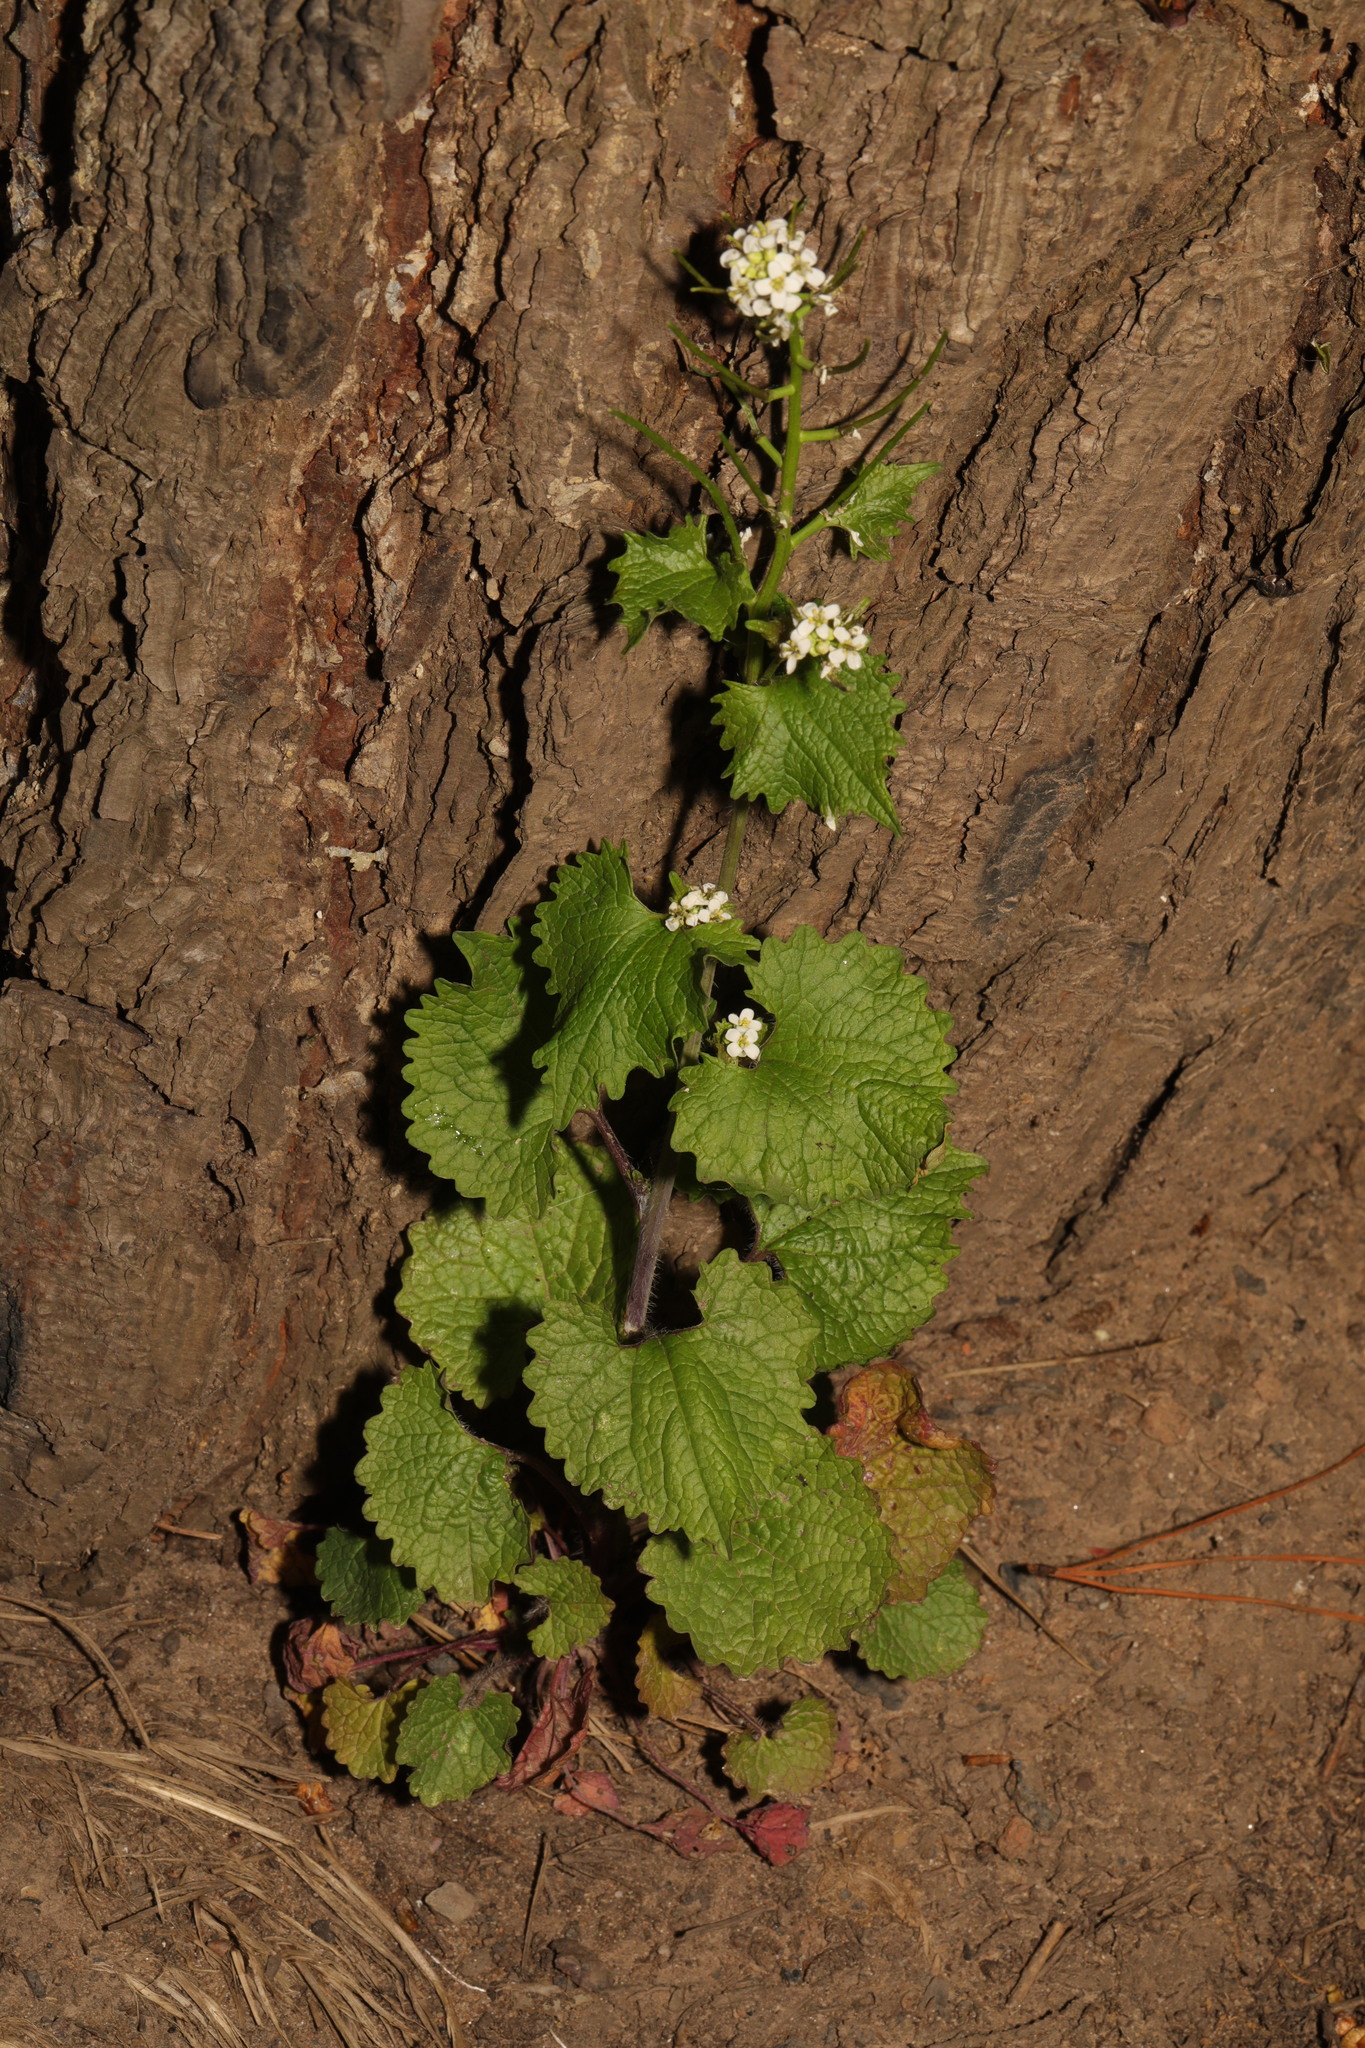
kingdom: Plantae
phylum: Tracheophyta
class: Magnoliopsida
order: Brassicales
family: Brassicaceae
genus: Alliaria
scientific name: Alliaria petiolata
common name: Garlic mustard
